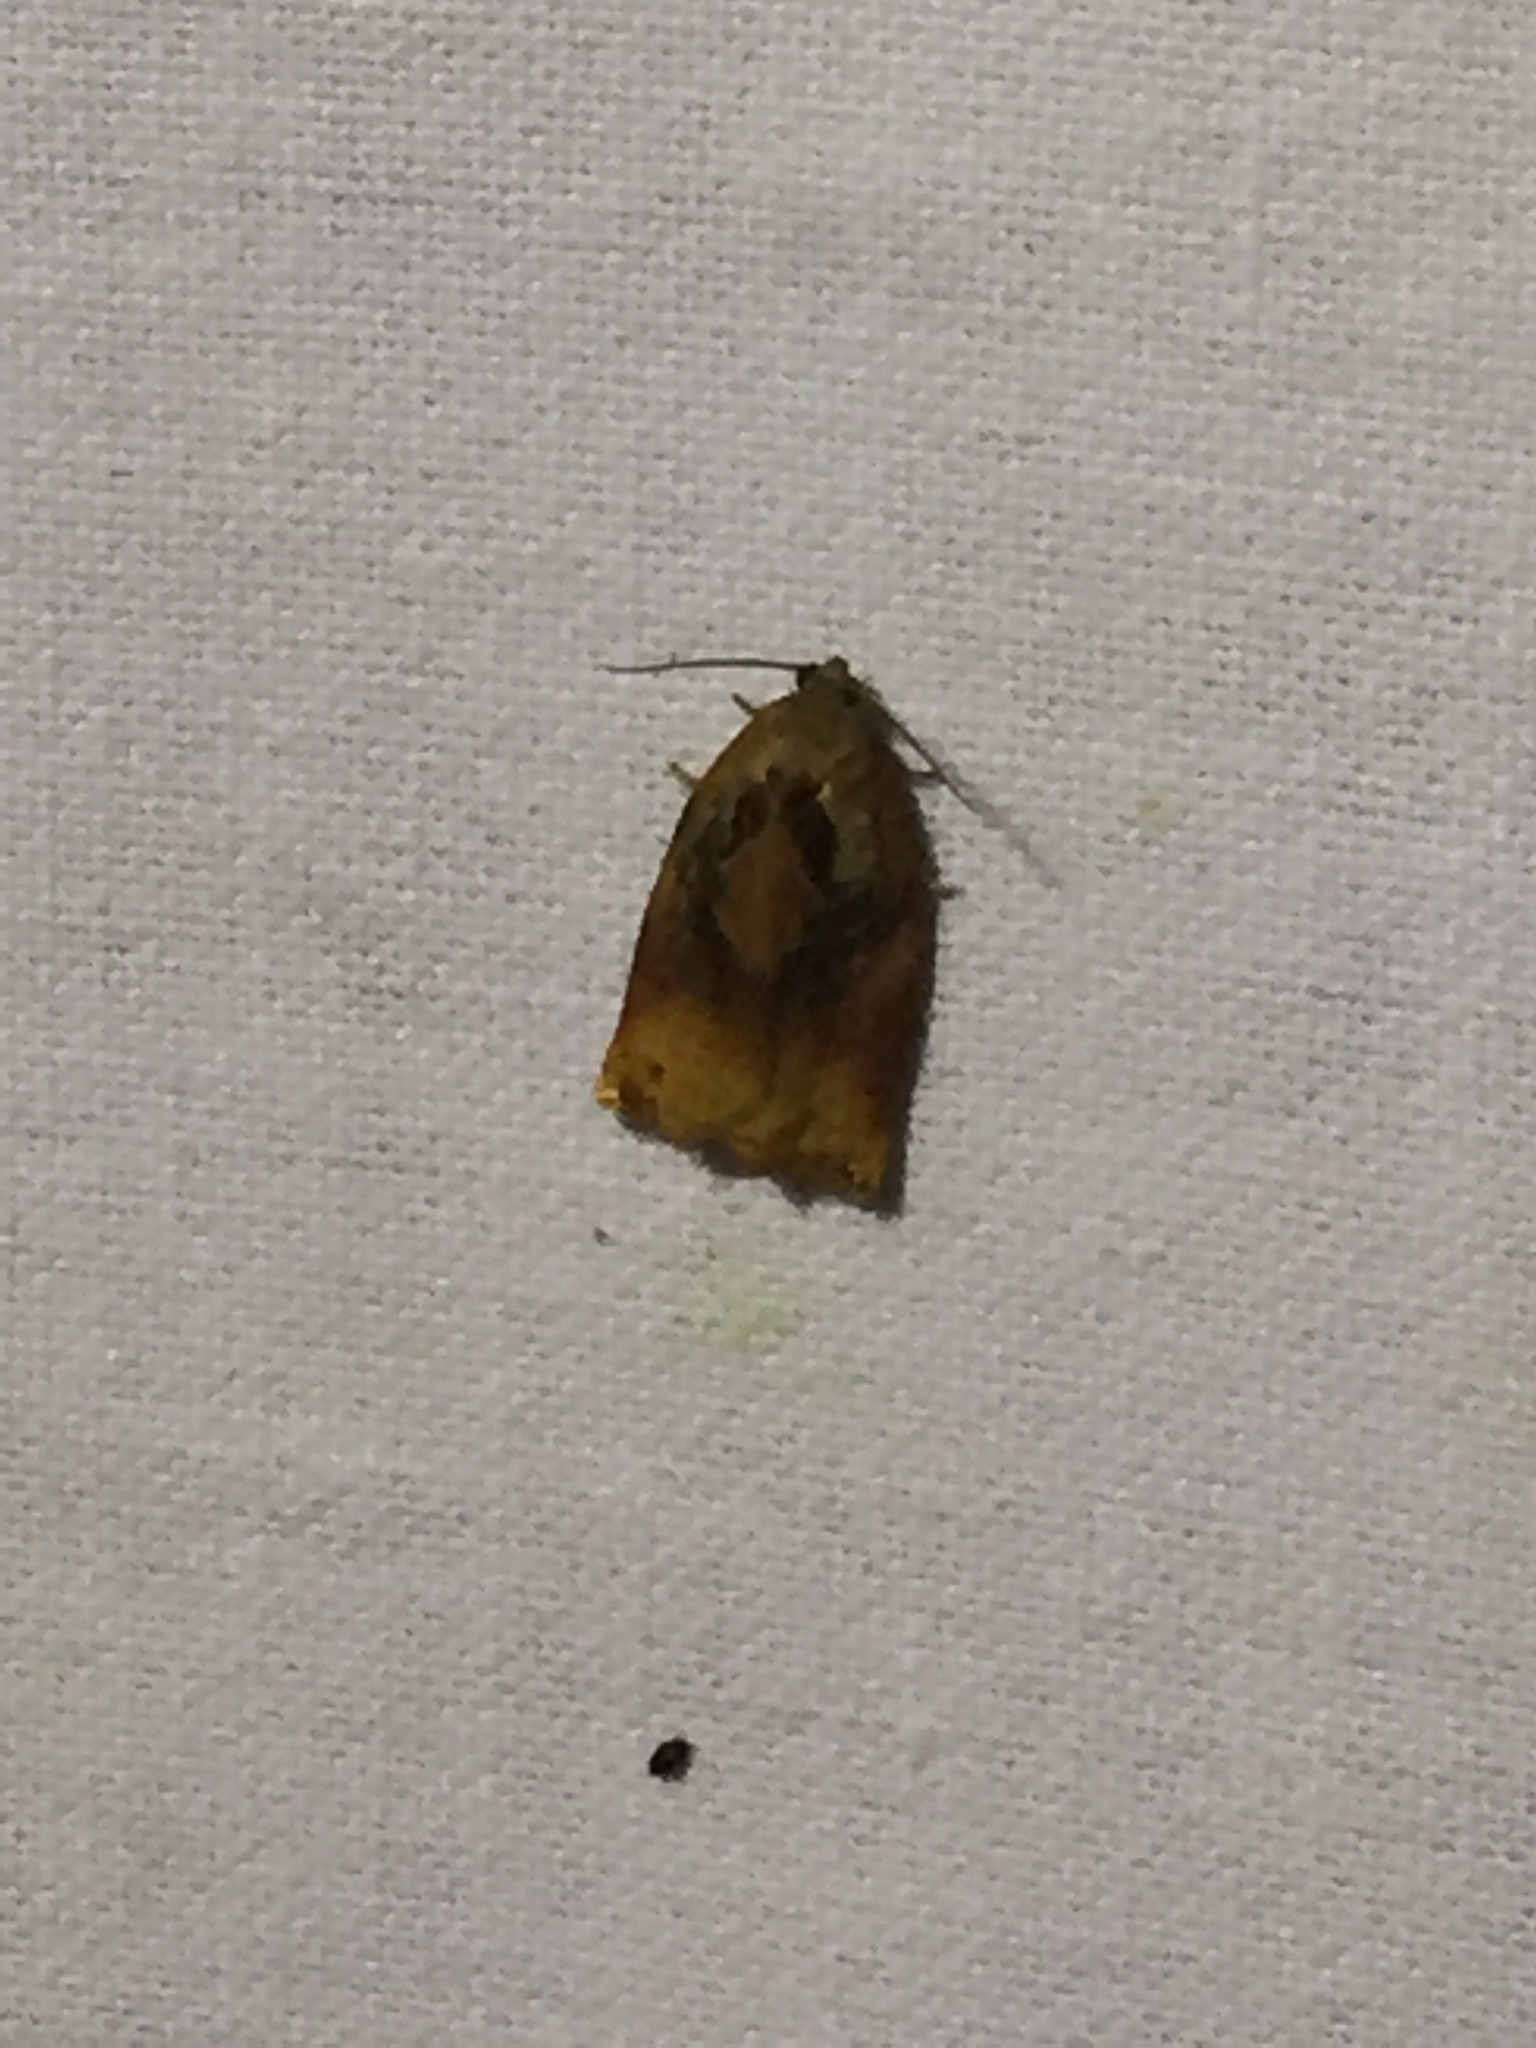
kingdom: Animalia
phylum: Arthropoda
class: Insecta
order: Lepidoptera
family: Tortricidae
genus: Archips
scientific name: Archips podana
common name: Large fruit-tree tortrix
